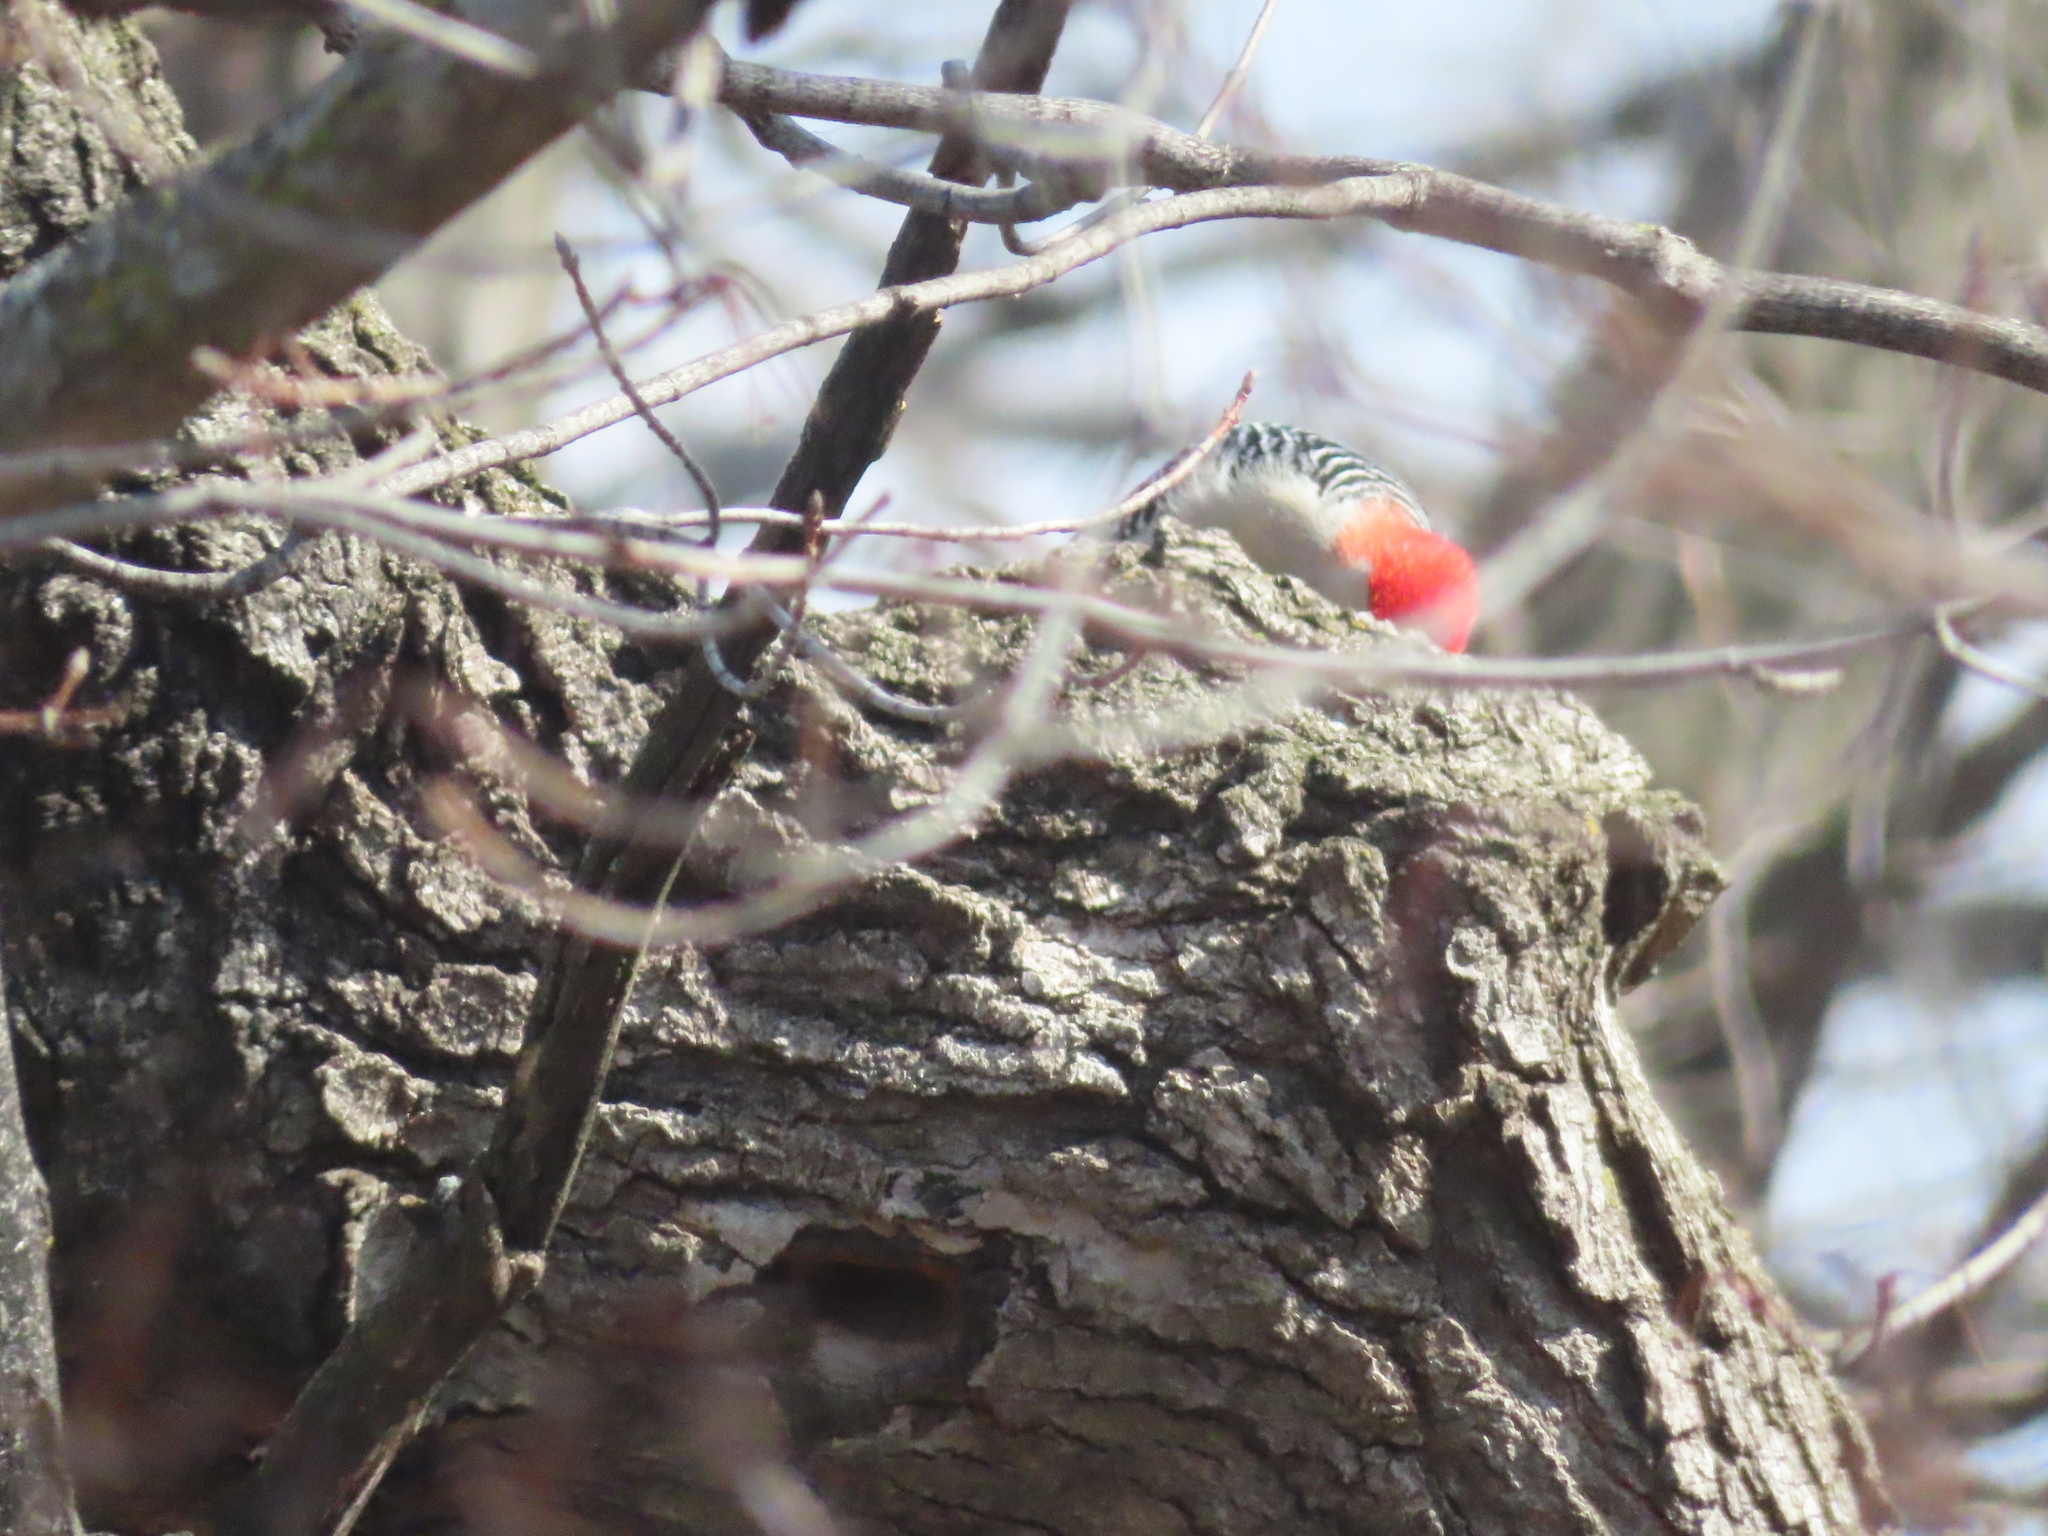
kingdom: Animalia
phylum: Chordata
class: Aves
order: Piciformes
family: Picidae
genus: Melanerpes
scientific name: Melanerpes carolinus
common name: Red-bellied woodpecker
